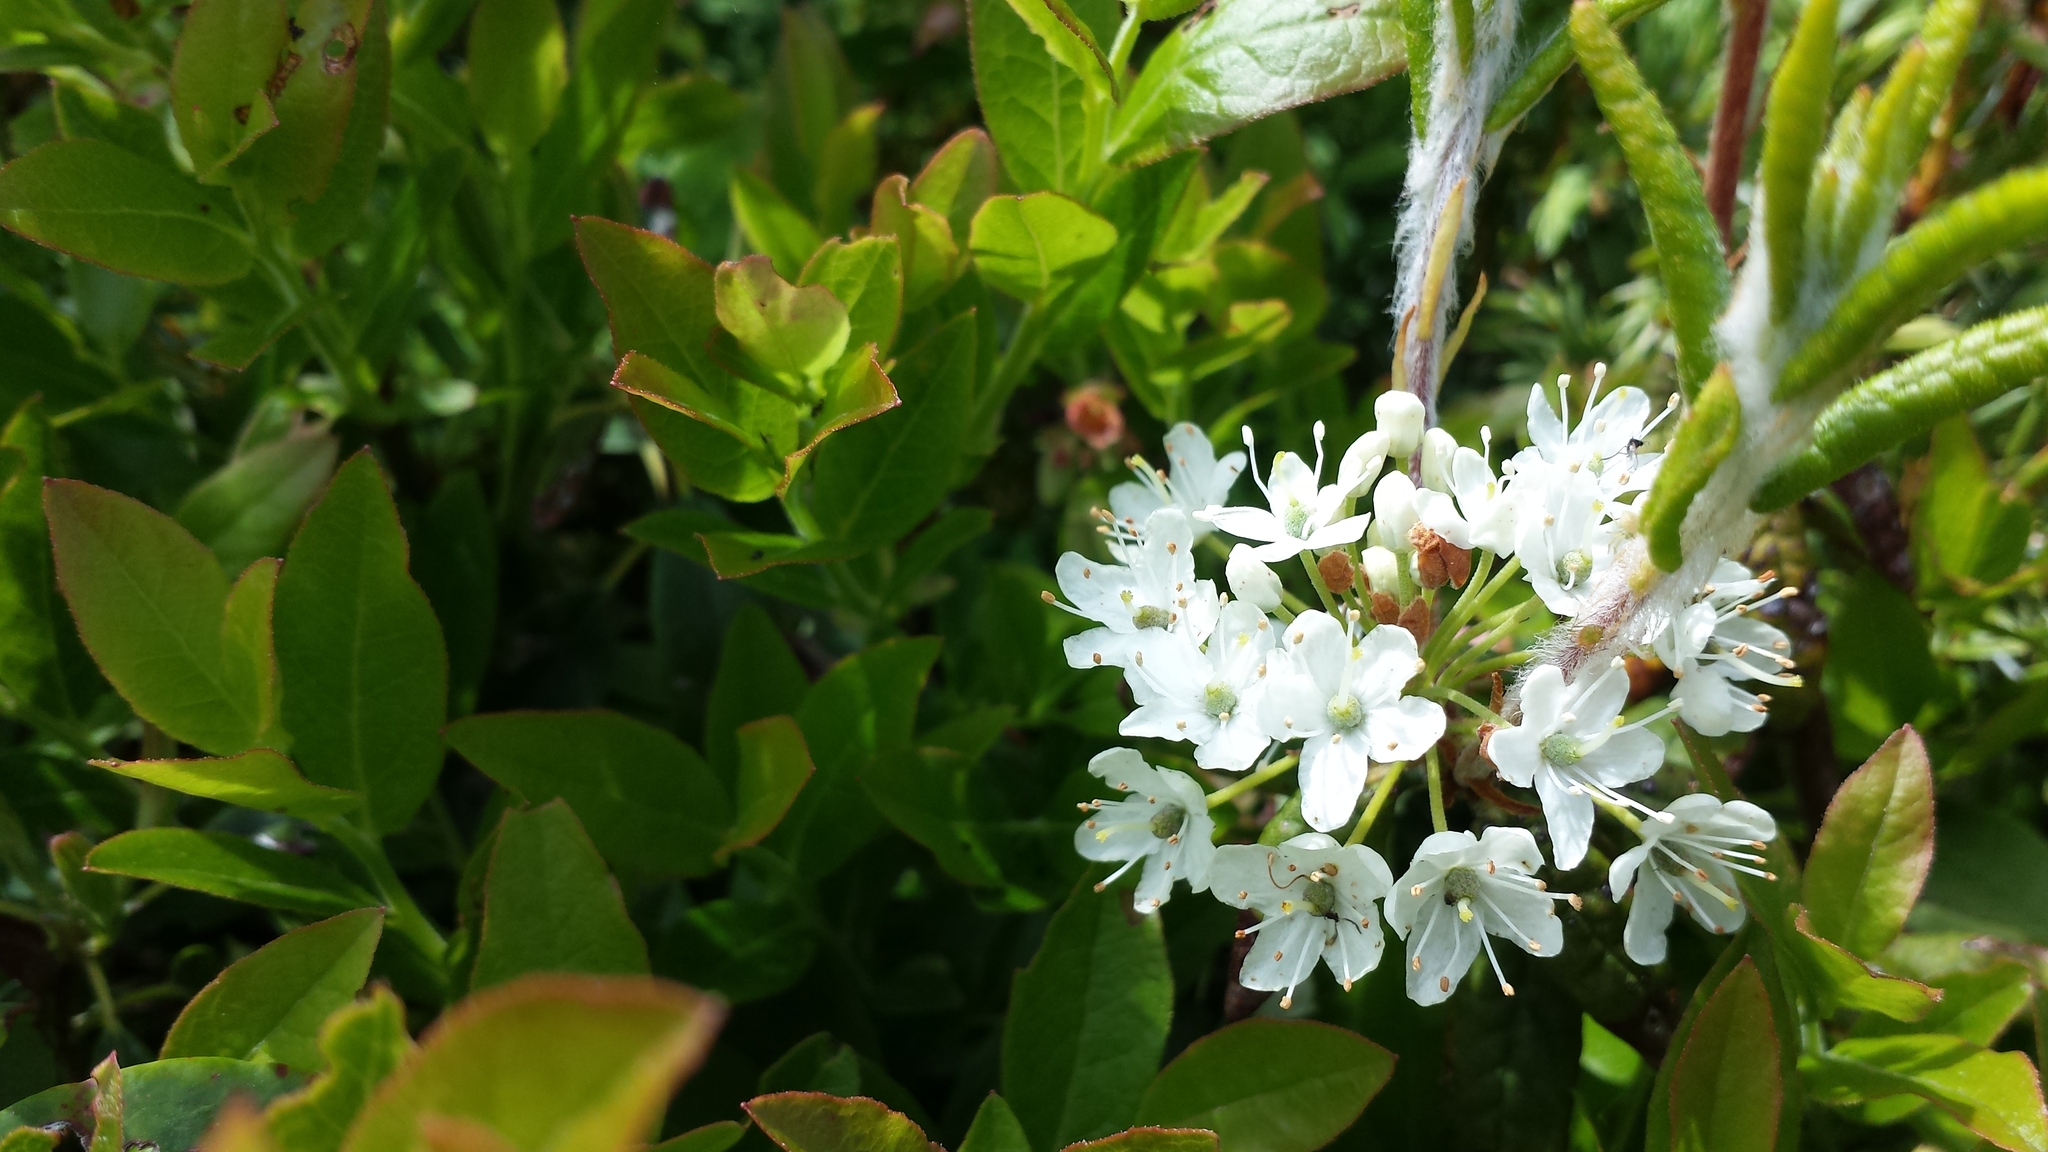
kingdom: Plantae
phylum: Tracheophyta
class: Magnoliopsida
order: Ericales
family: Ericaceae
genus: Rhododendron
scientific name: Rhododendron groenlandicum
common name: Bog labrador tea
